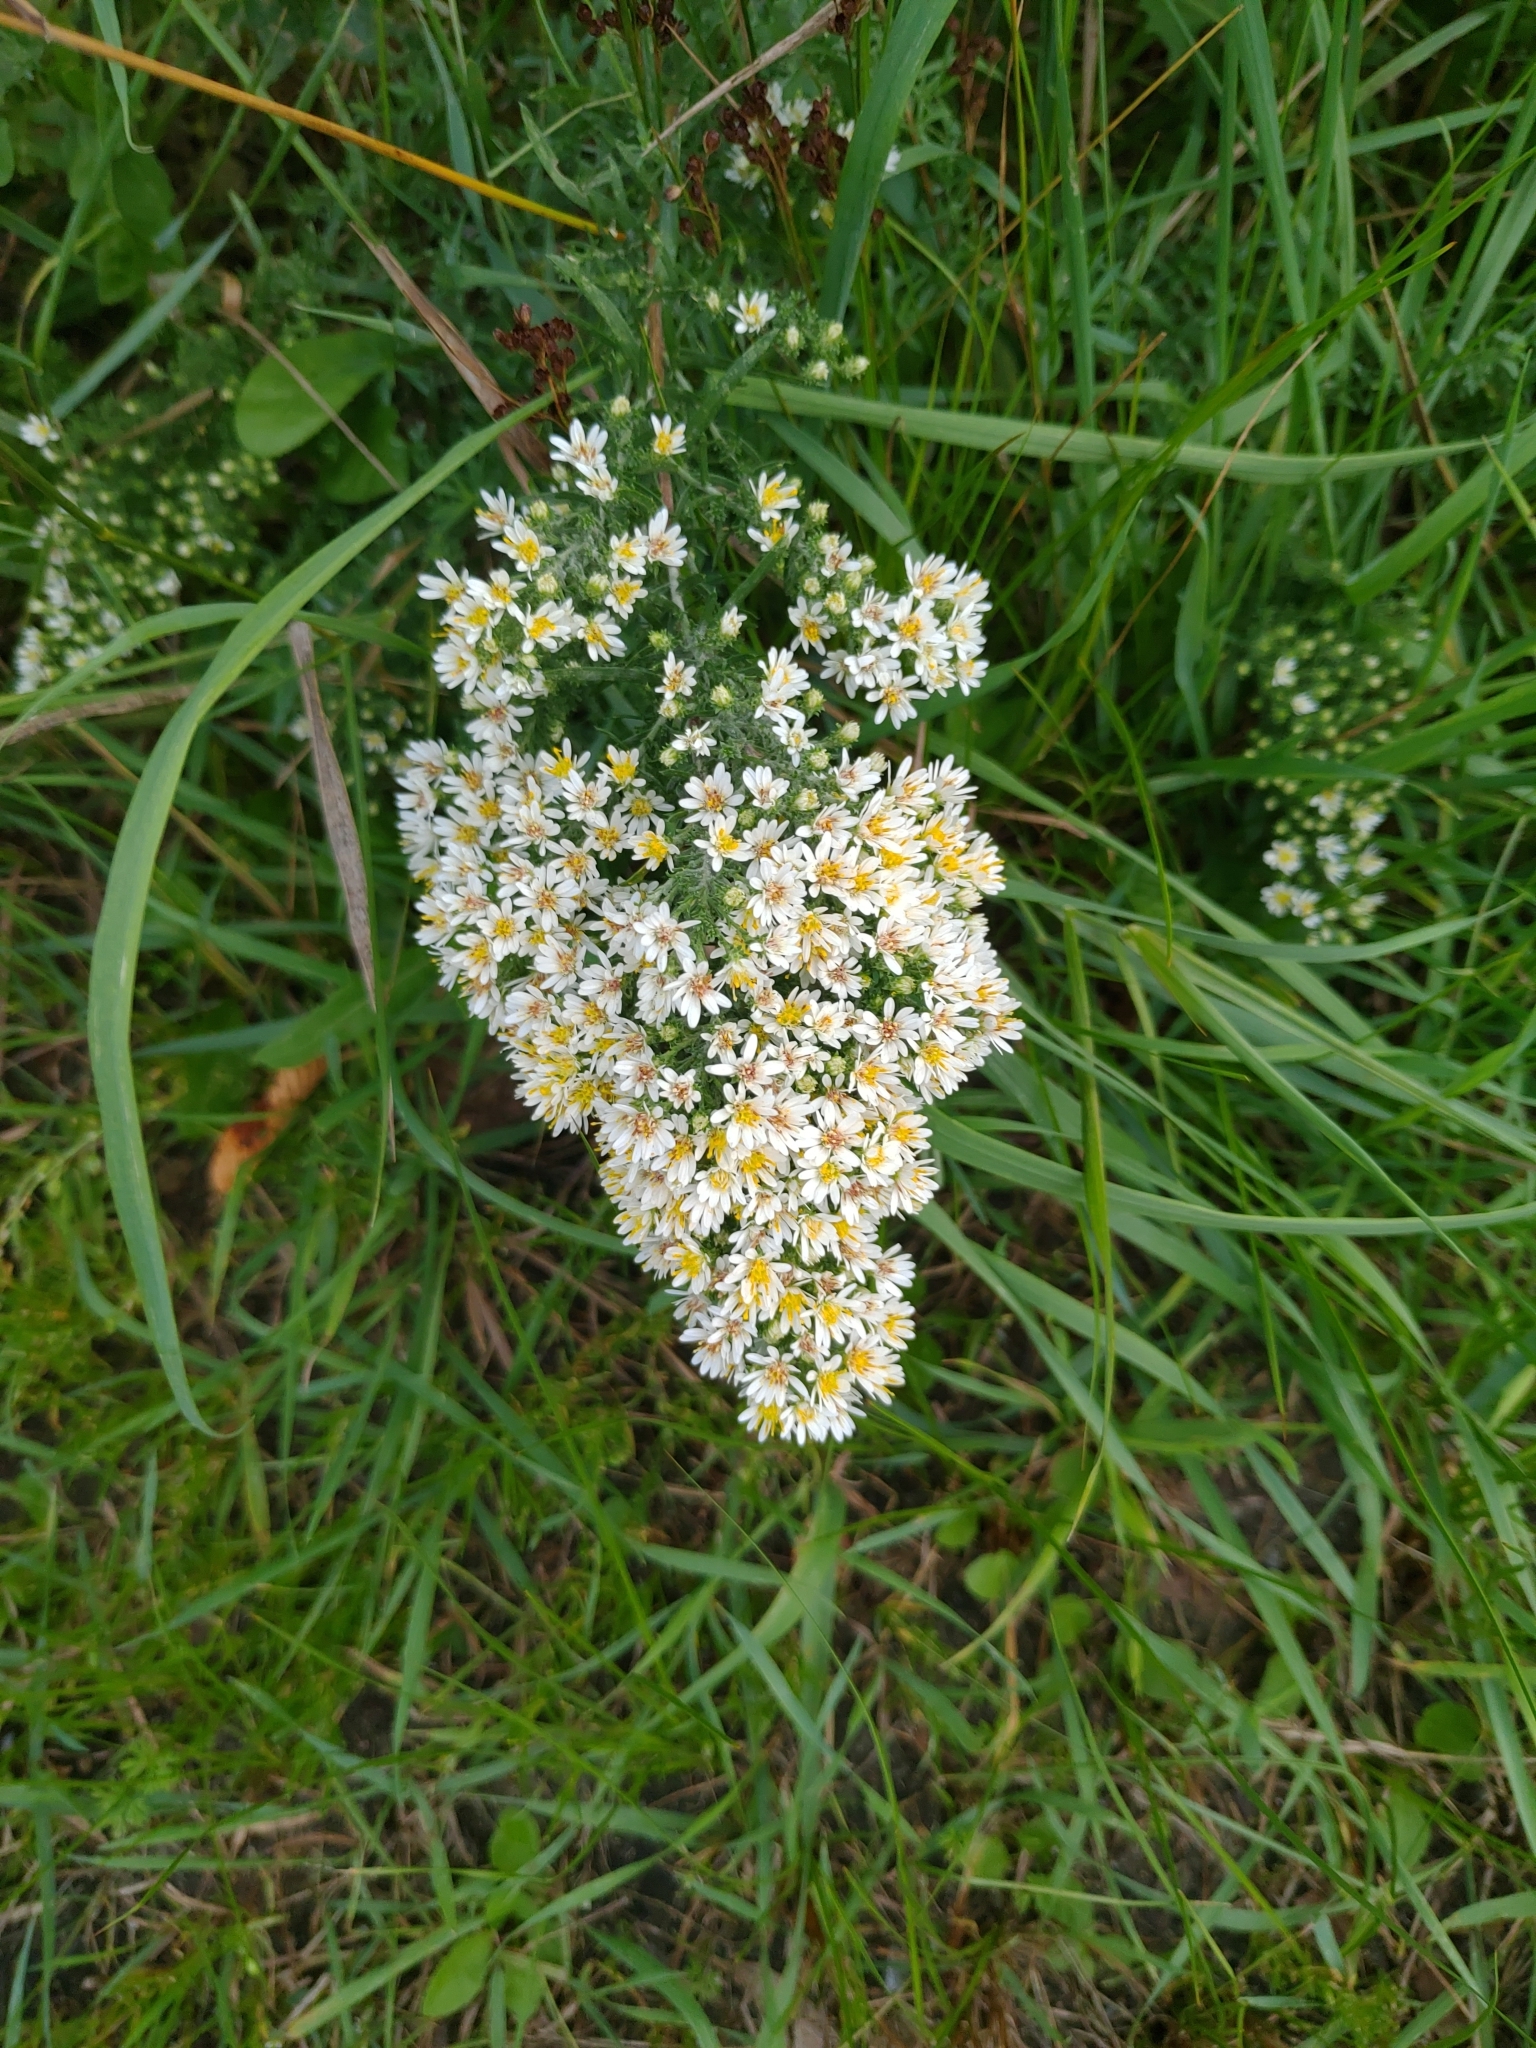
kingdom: Plantae
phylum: Tracheophyta
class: Magnoliopsida
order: Asterales
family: Asteraceae
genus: Symphyotrichum
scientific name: Symphyotrichum ericoides
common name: Heath aster
